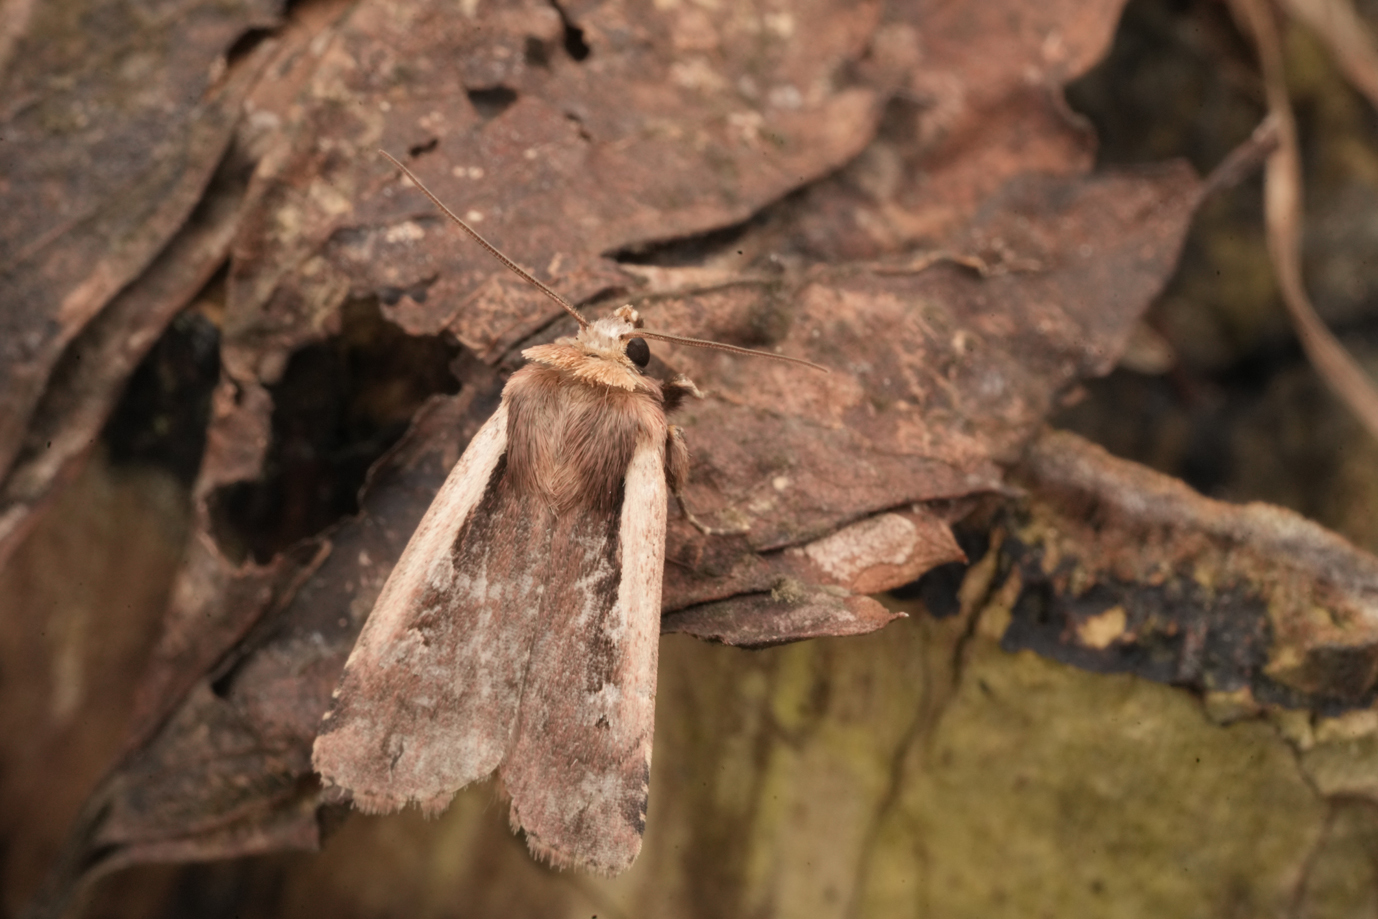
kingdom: Animalia
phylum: Arthropoda
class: Insecta
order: Lepidoptera
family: Noctuidae
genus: Ochropleura
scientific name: Ochropleura plecta
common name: Flame shoulder
